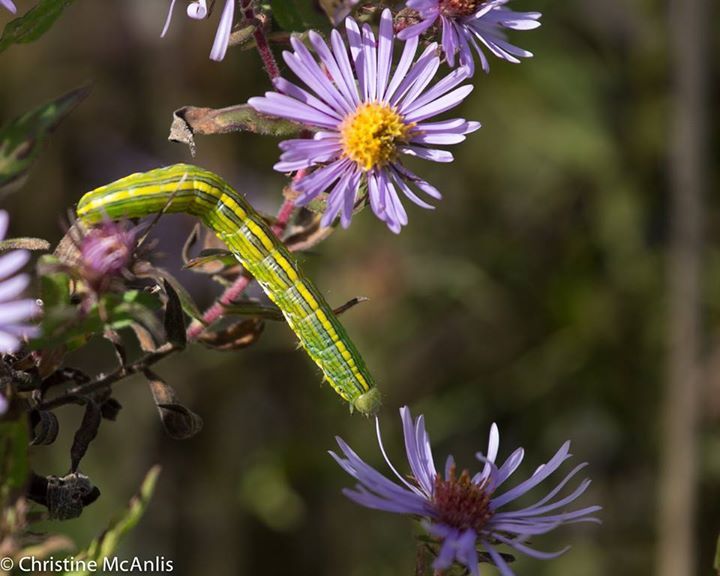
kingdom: Animalia
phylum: Arthropoda
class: Insecta
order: Lepidoptera
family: Noctuidae
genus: Cucullia
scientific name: Cucullia asteroides
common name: Asteroid moth
